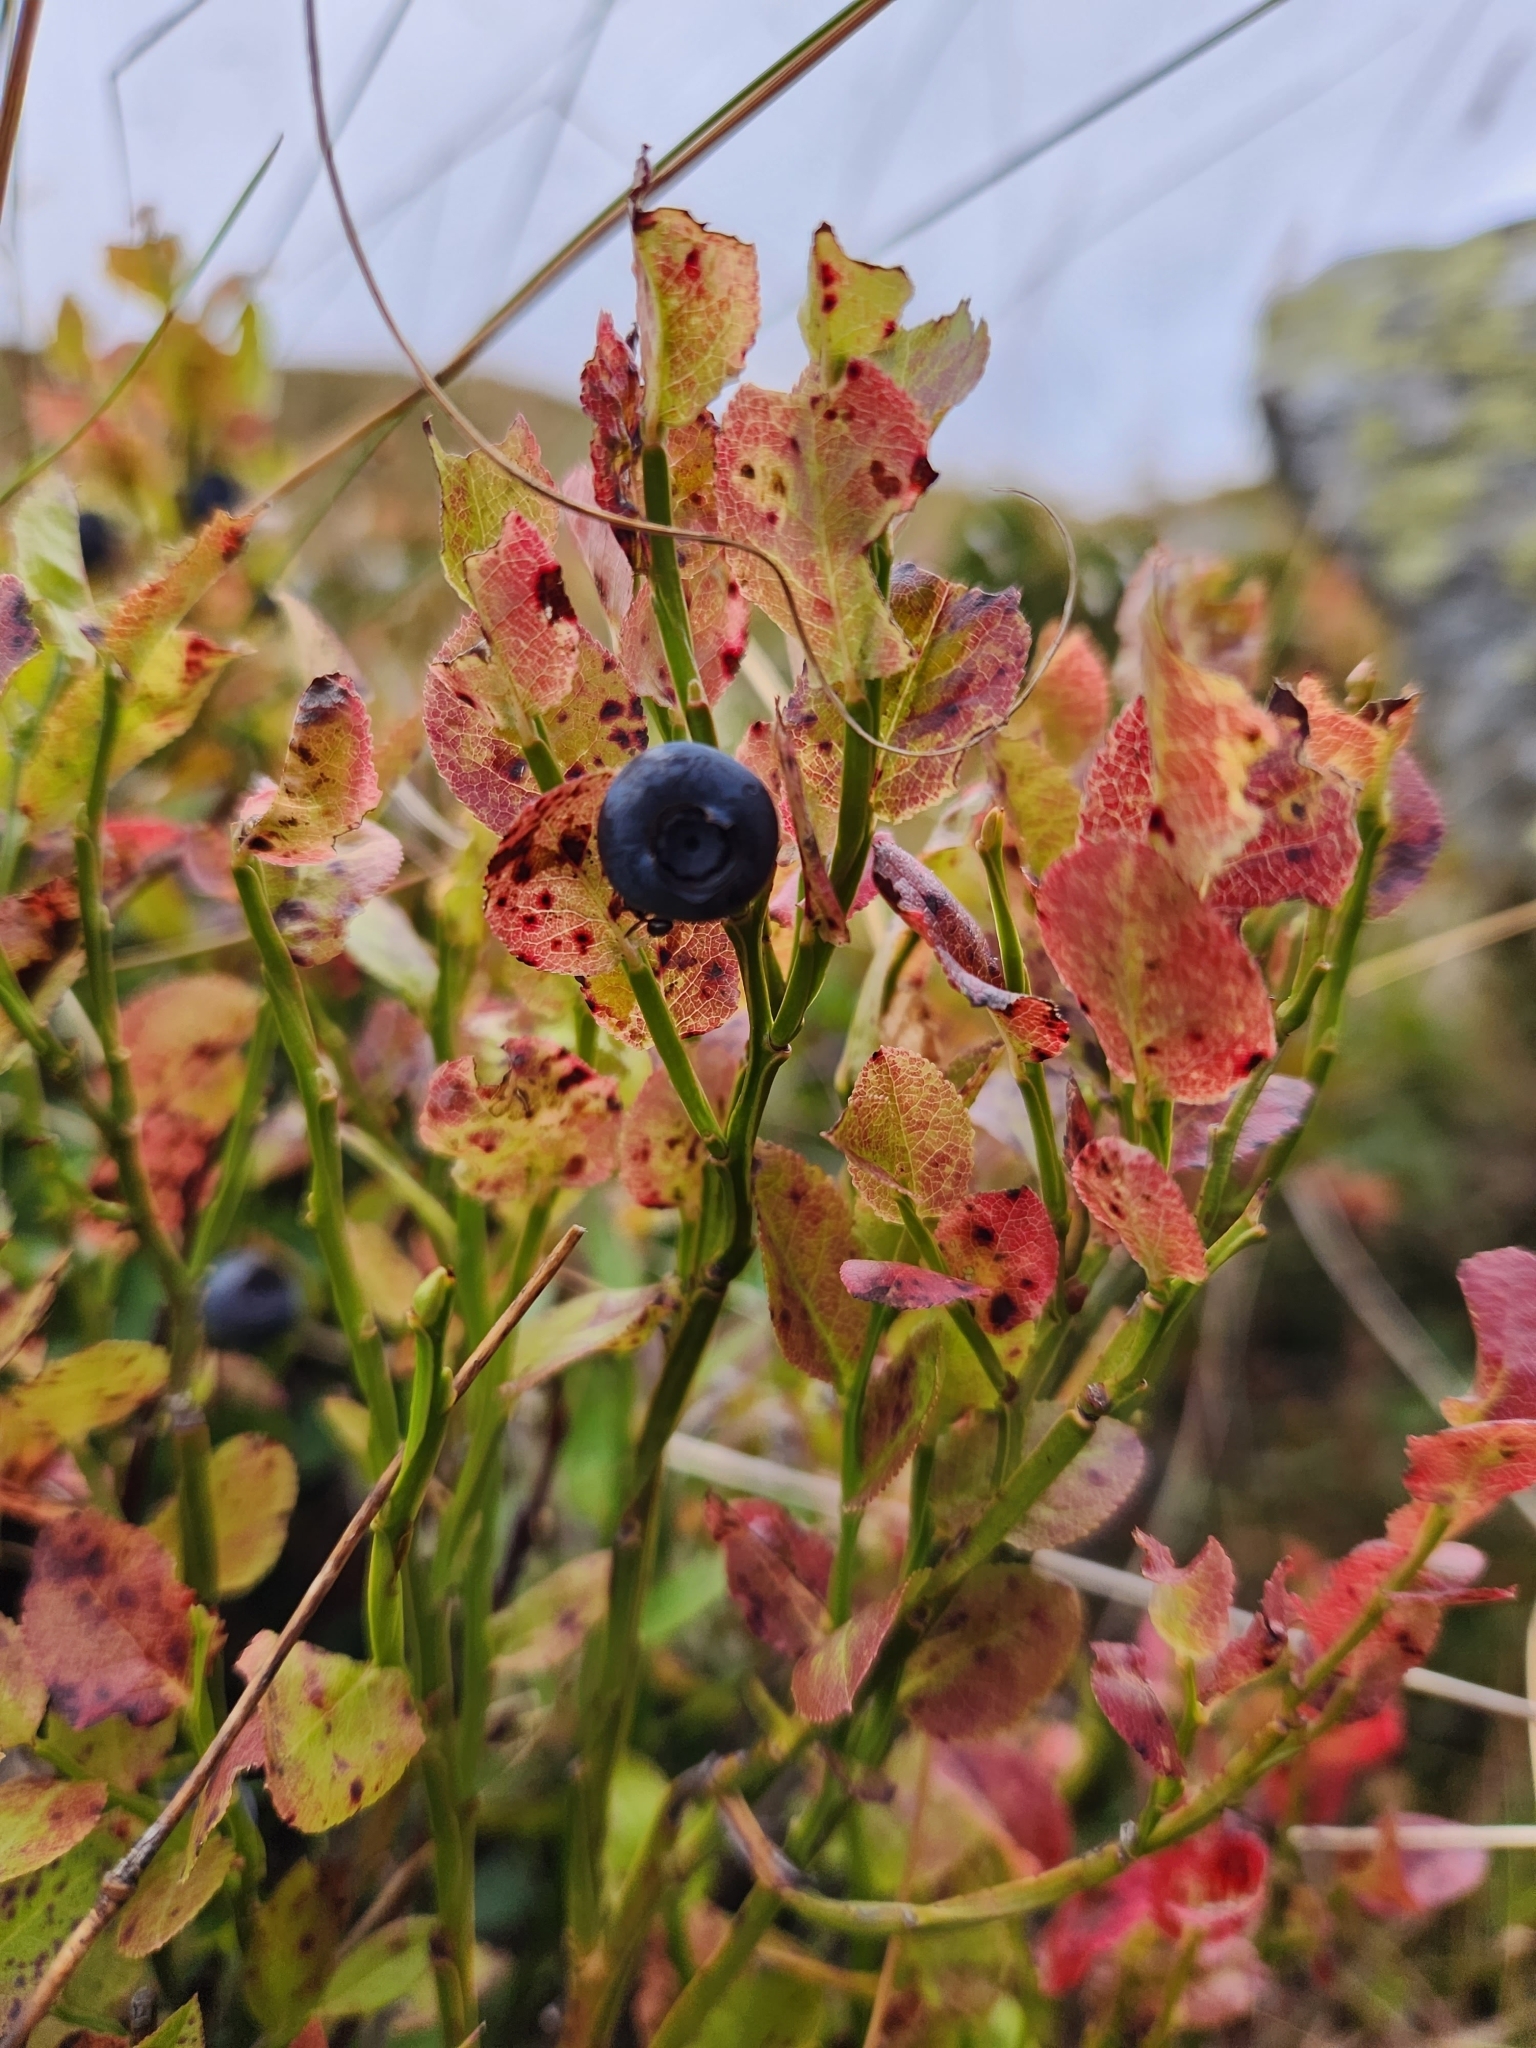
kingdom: Plantae
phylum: Tracheophyta
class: Magnoliopsida
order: Ericales
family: Ericaceae
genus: Vaccinium
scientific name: Vaccinium myrtillus
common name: Bilberry
